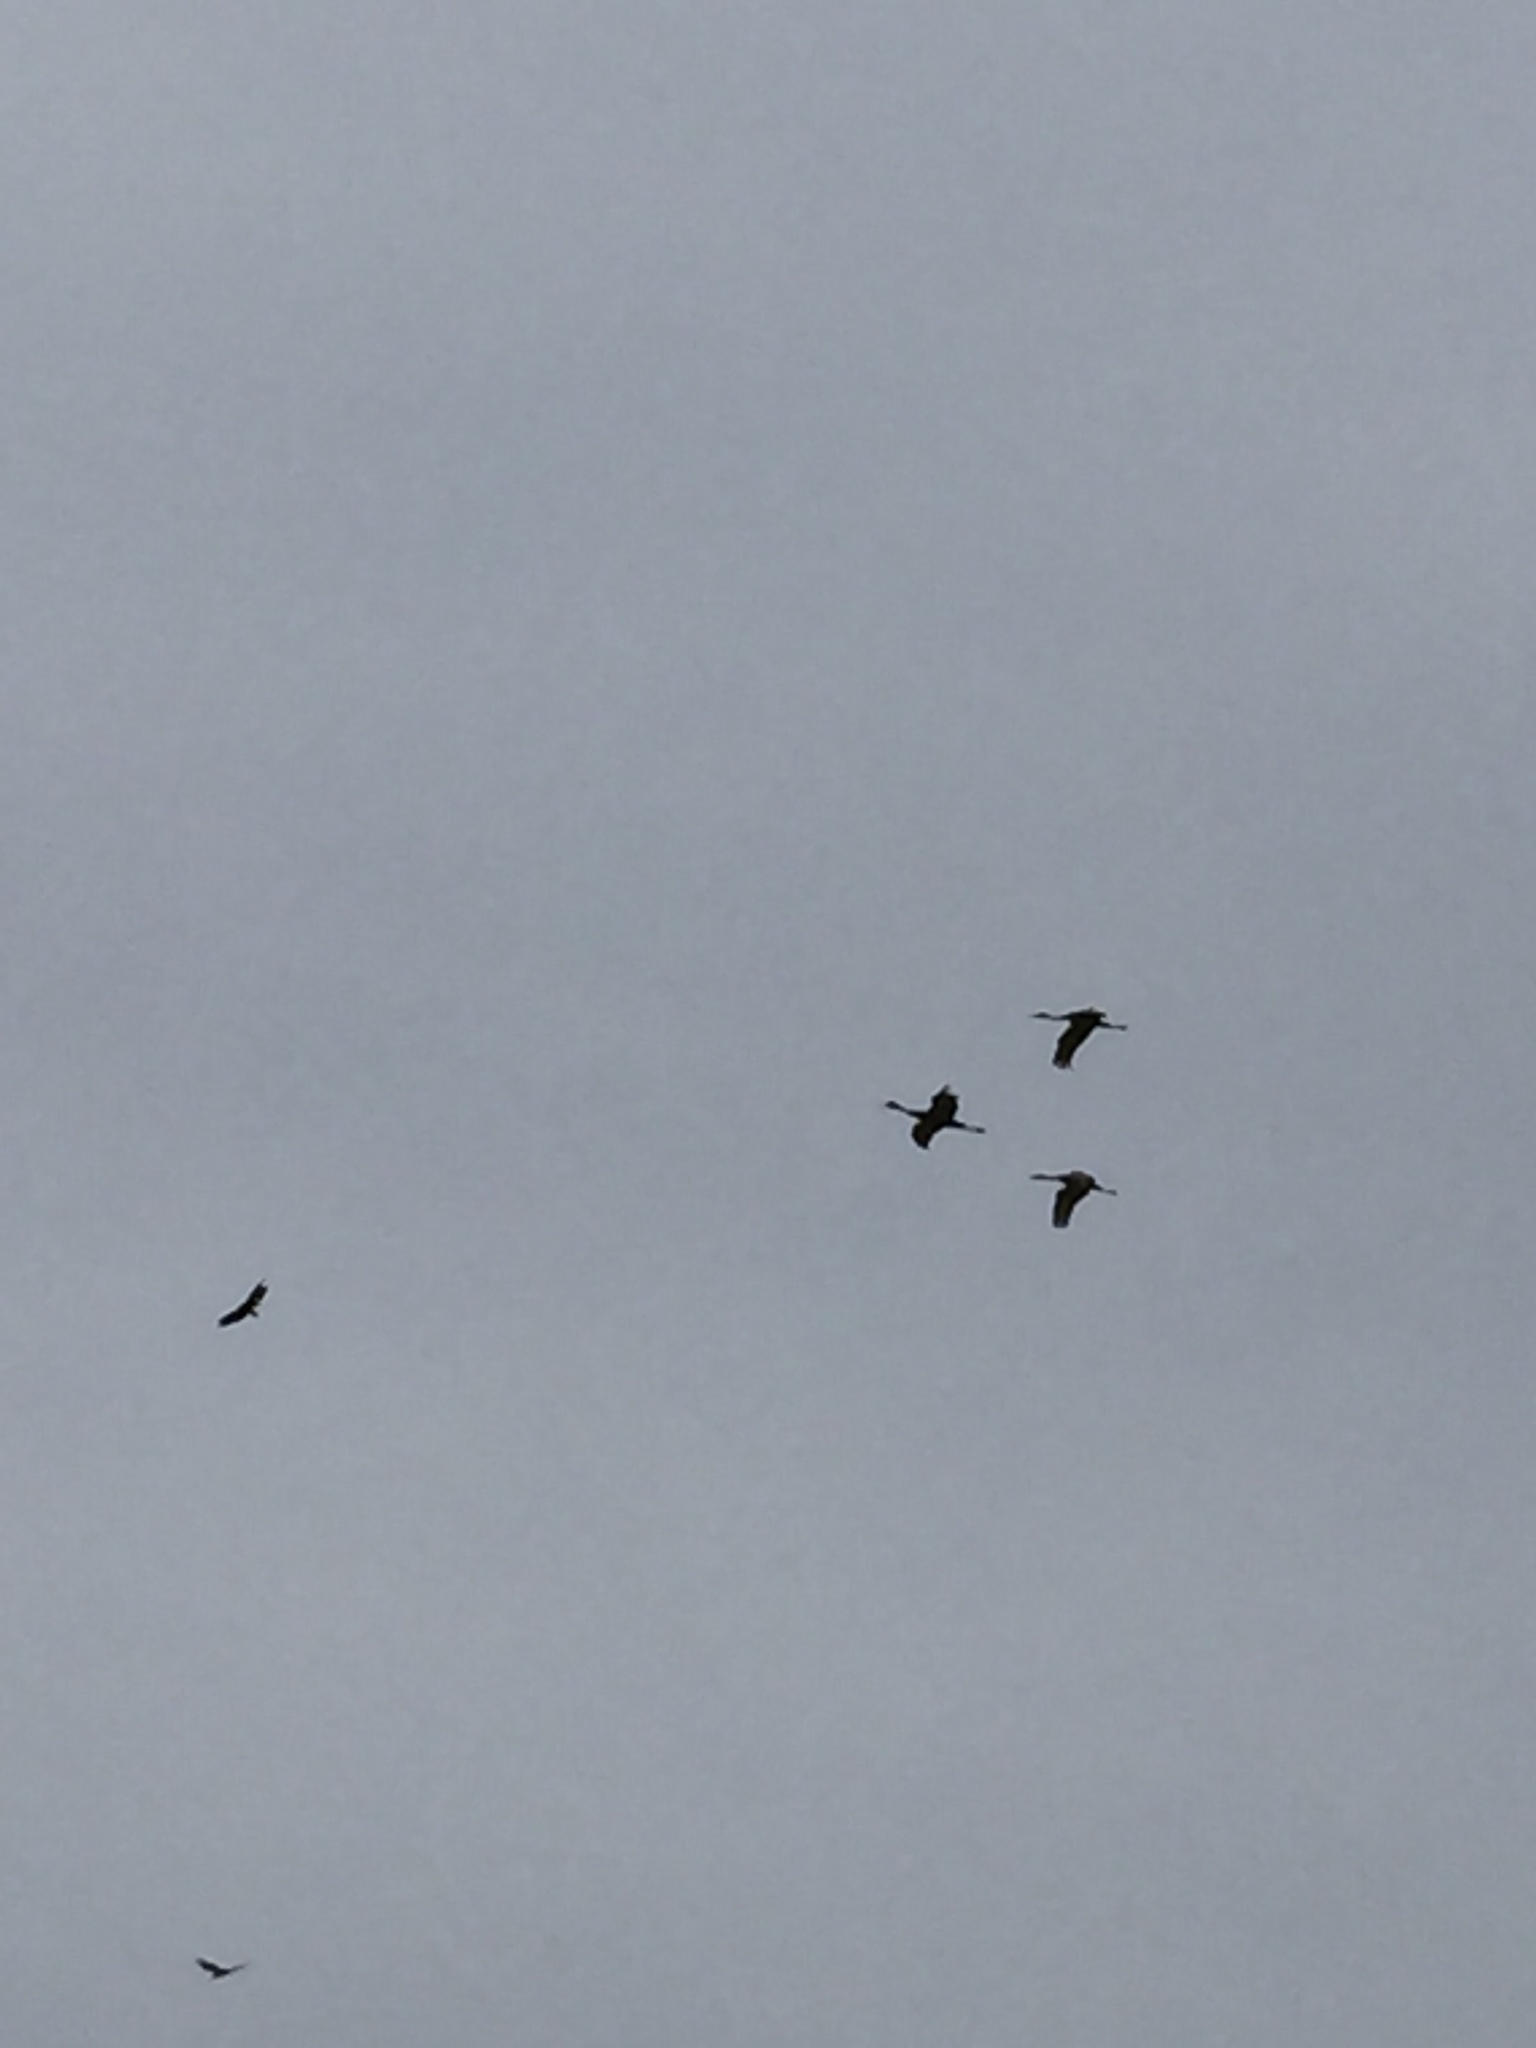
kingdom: Animalia
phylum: Chordata
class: Aves
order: Gruiformes
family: Gruidae
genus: Grus
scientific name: Grus canadensis
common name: Sandhill crane
